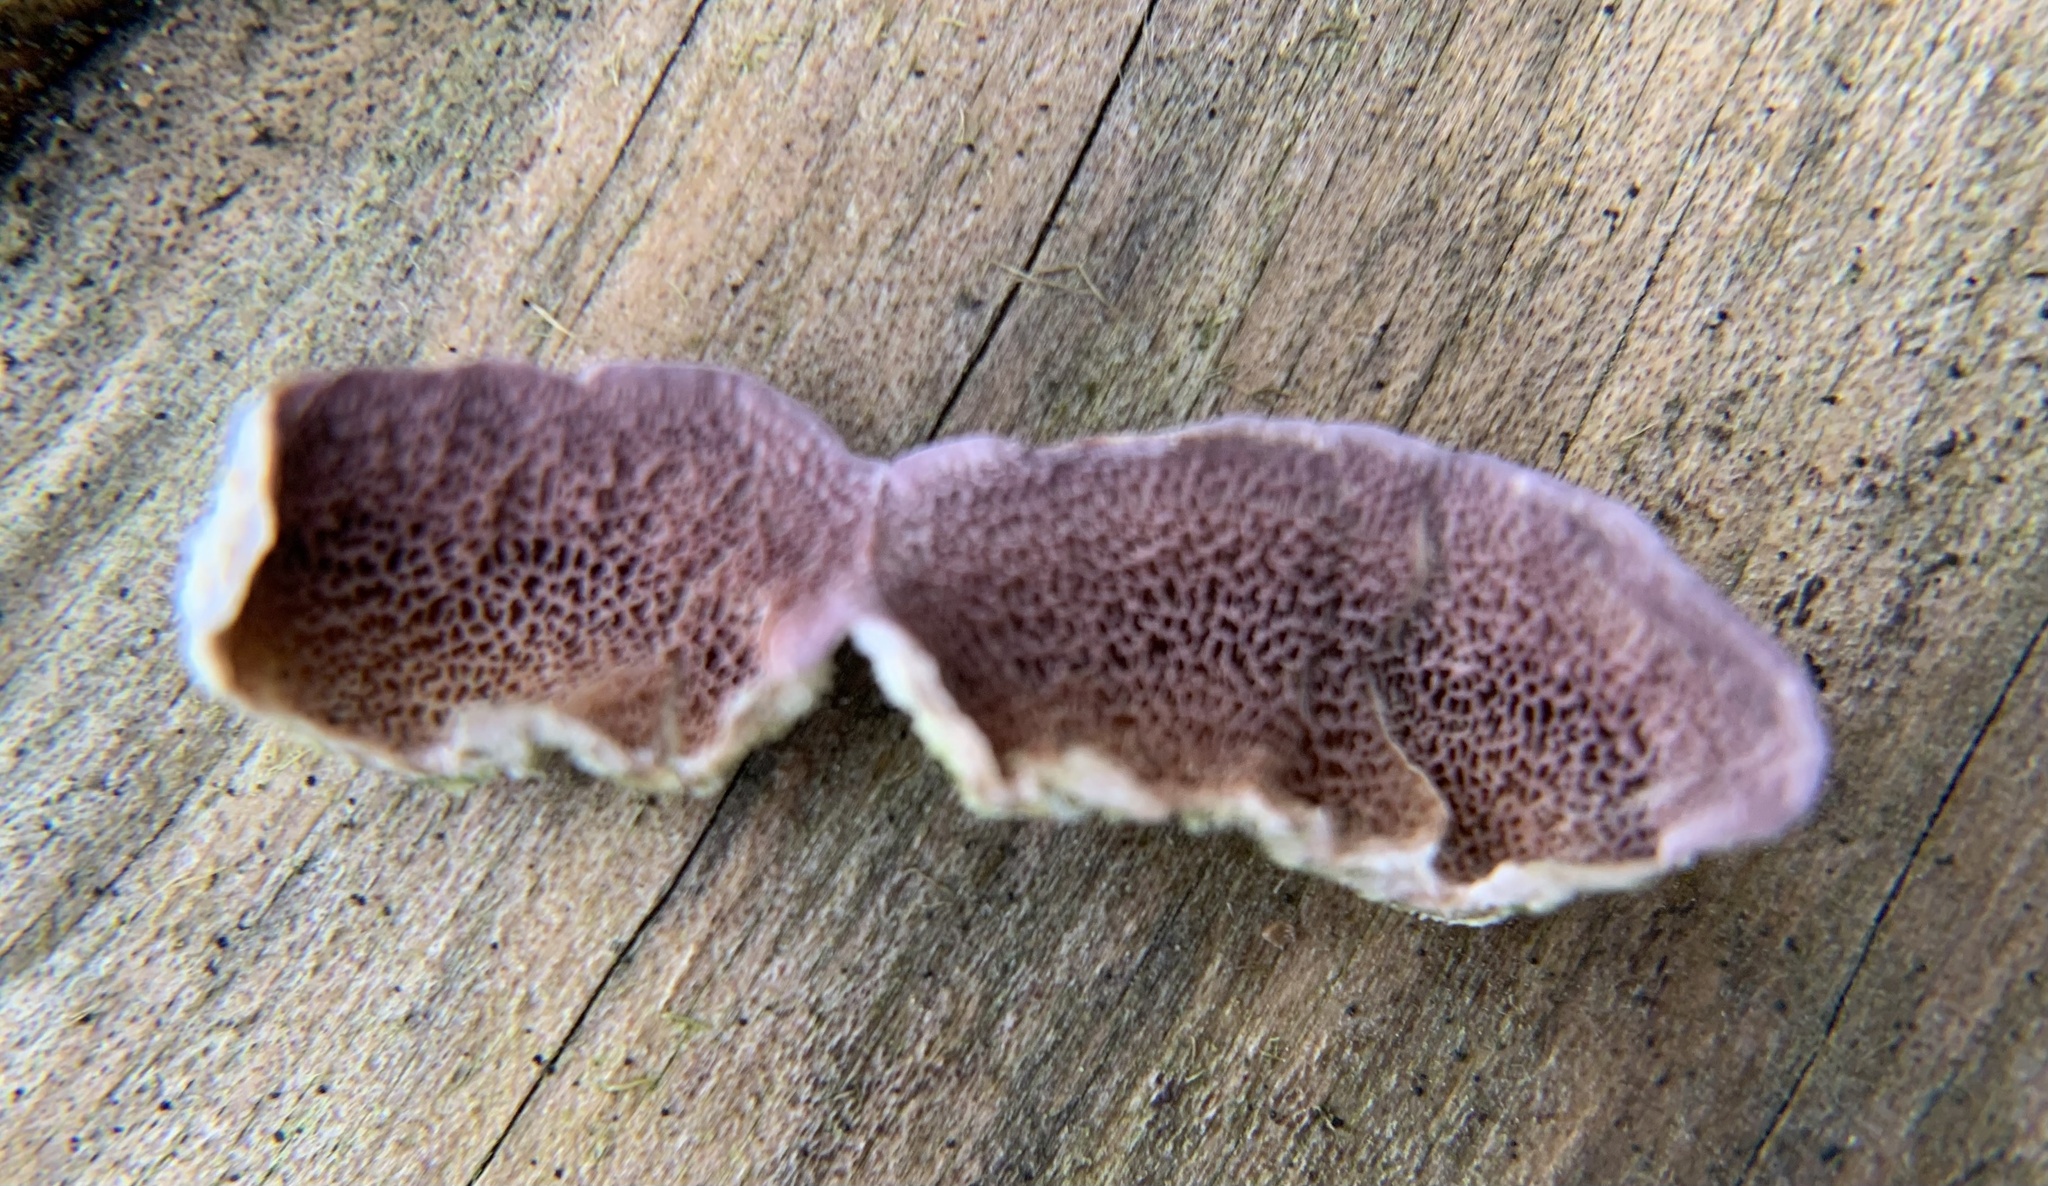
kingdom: Fungi
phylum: Basidiomycota
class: Agaricomycetes
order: Hymenochaetales
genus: Trichaptum
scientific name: Trichaptum abietinum
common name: Purplepore bracket
